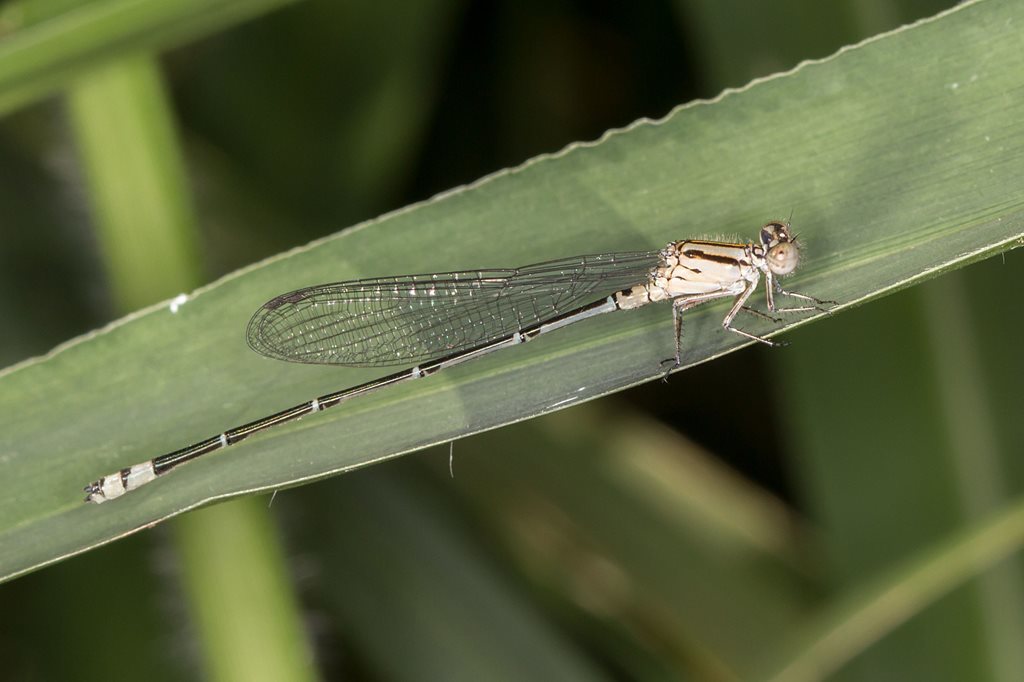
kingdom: Animalia
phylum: Arthropoda
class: Insecta
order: Odonata
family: Coenagrionidae
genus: Pseudagrion
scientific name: Pseudagrion microcephalum
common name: Blue riverdamsel
